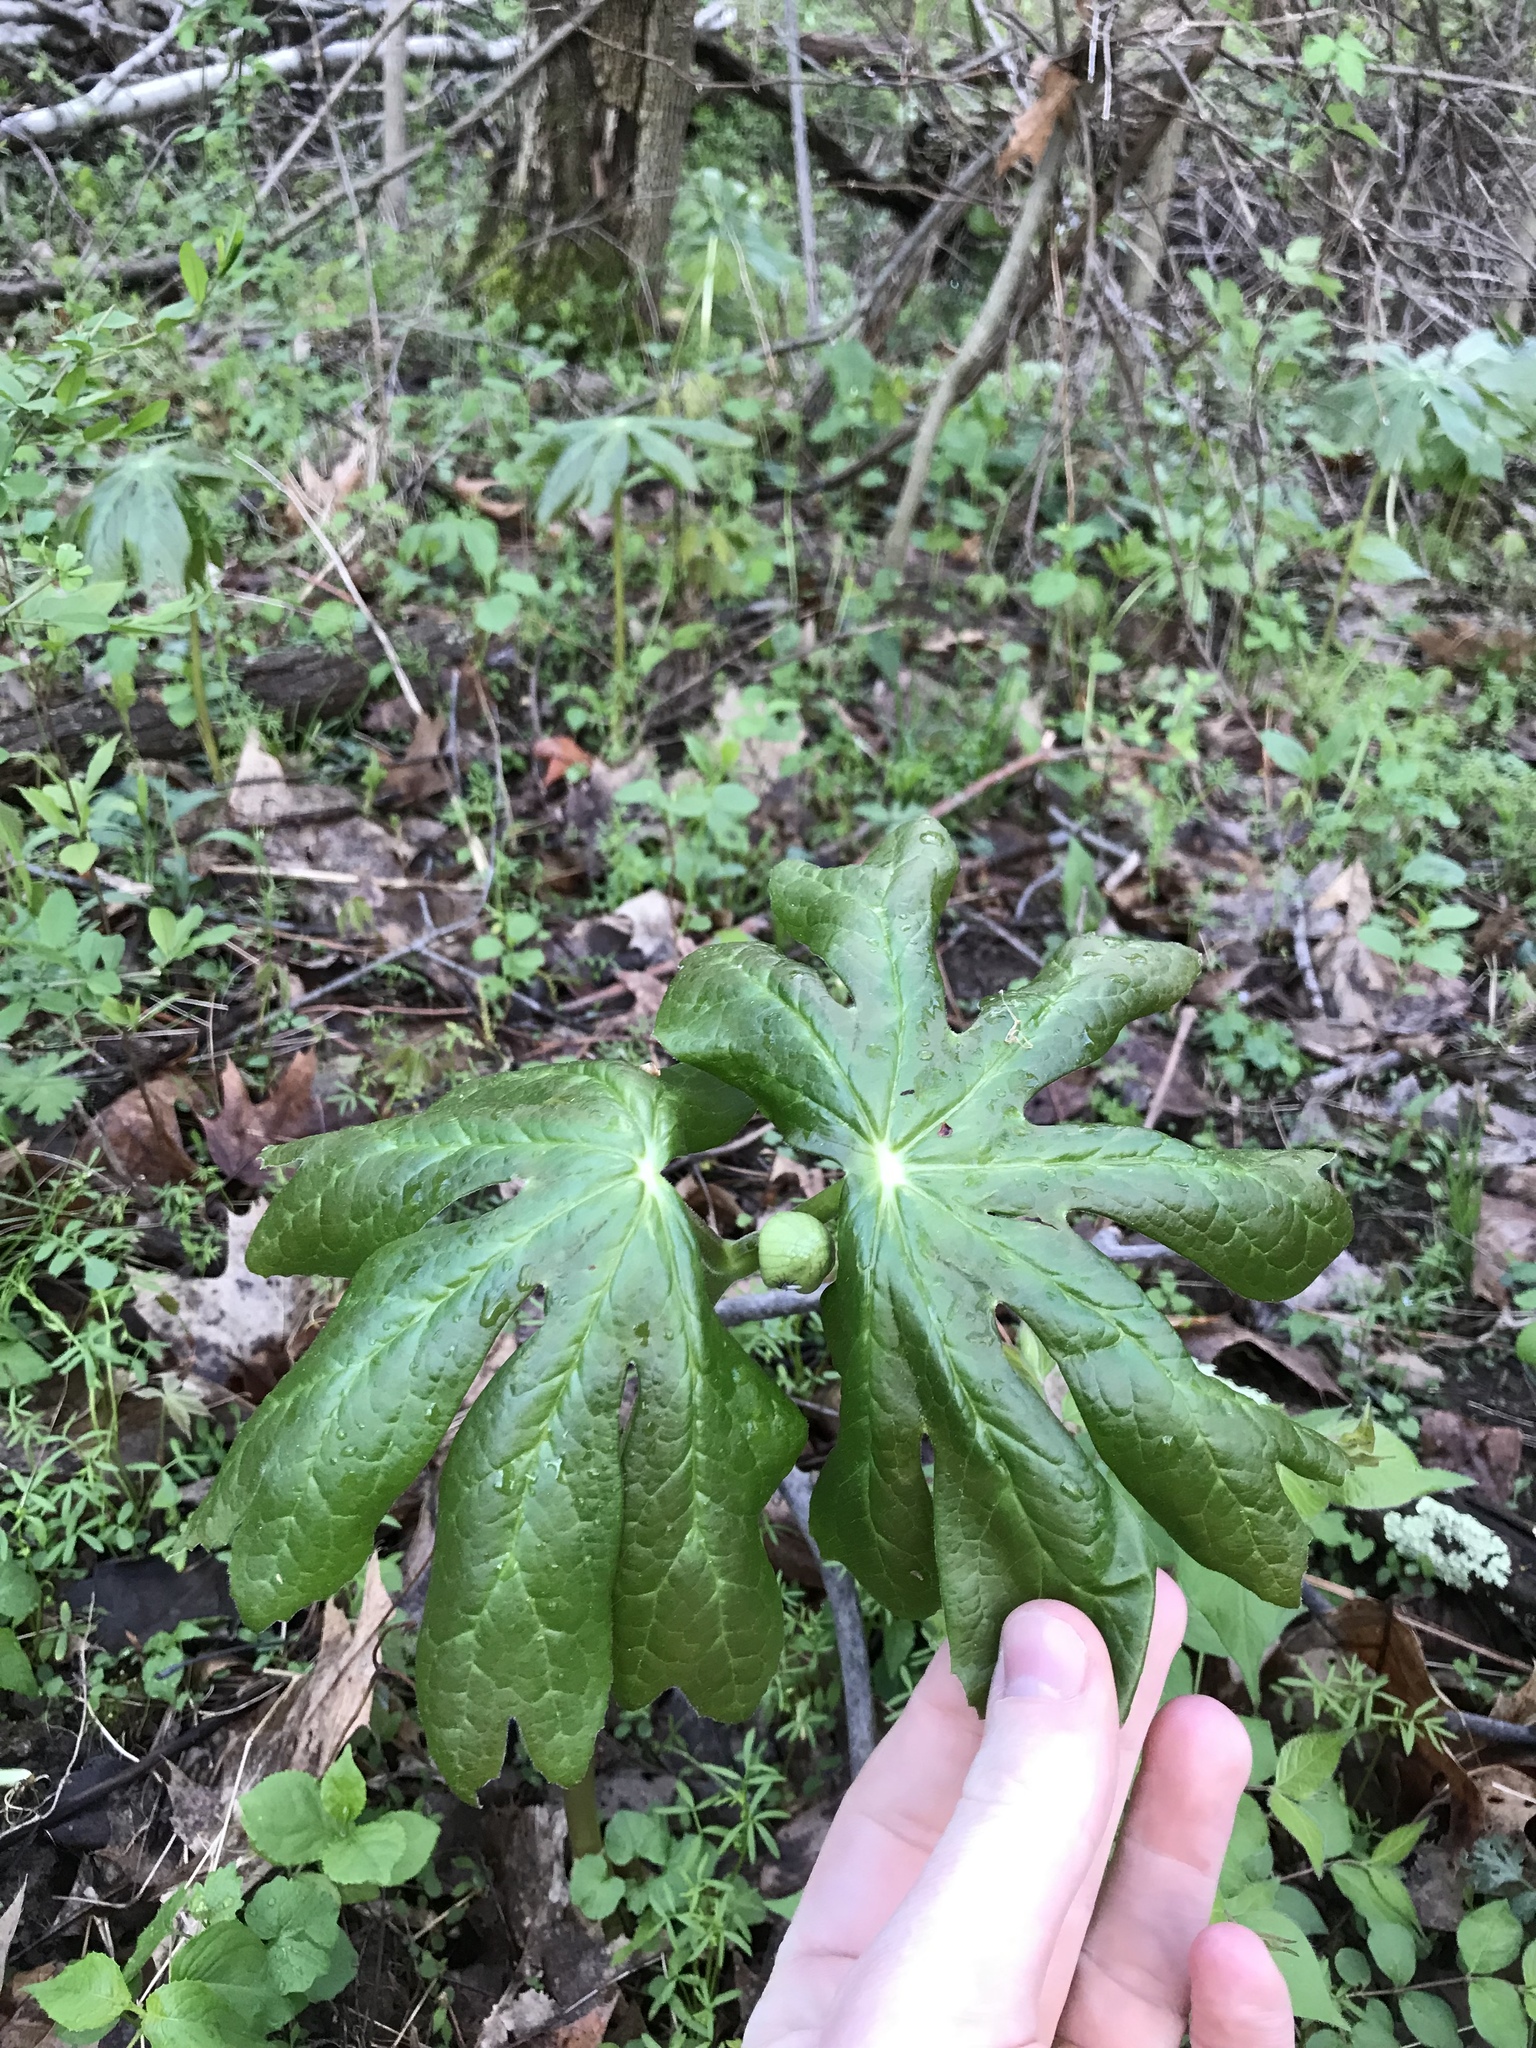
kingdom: Plantae
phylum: Tracheophyta
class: Magnoliopsida
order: Ranunculales
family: Berberidaceae
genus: Podophyllum
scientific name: Podophyllum peltatum
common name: Wild mandrake
